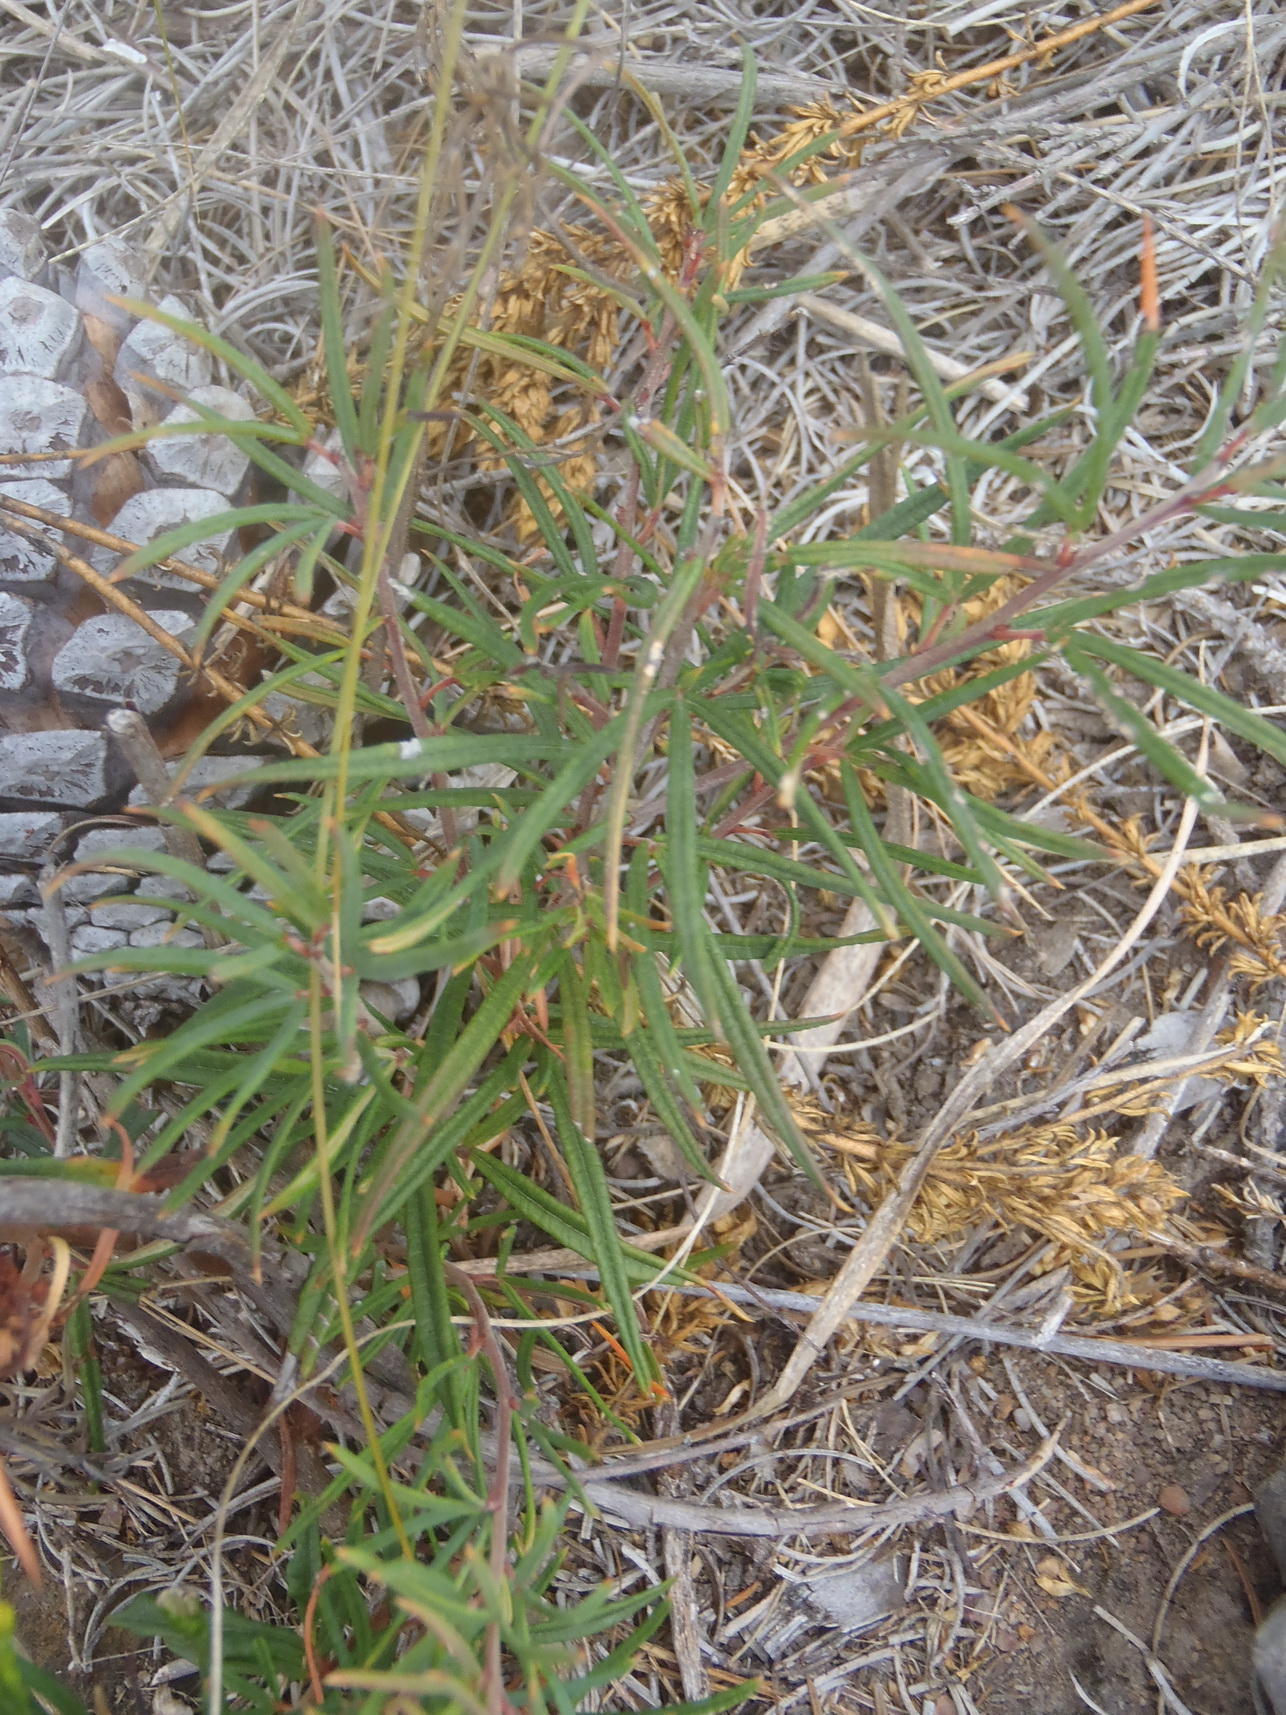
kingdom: Plantae
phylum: Tracheophyta
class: Magnoliopsida
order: Sapindales
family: Anacardiaceae
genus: Searsia
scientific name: Searsia rosmarinifolia
